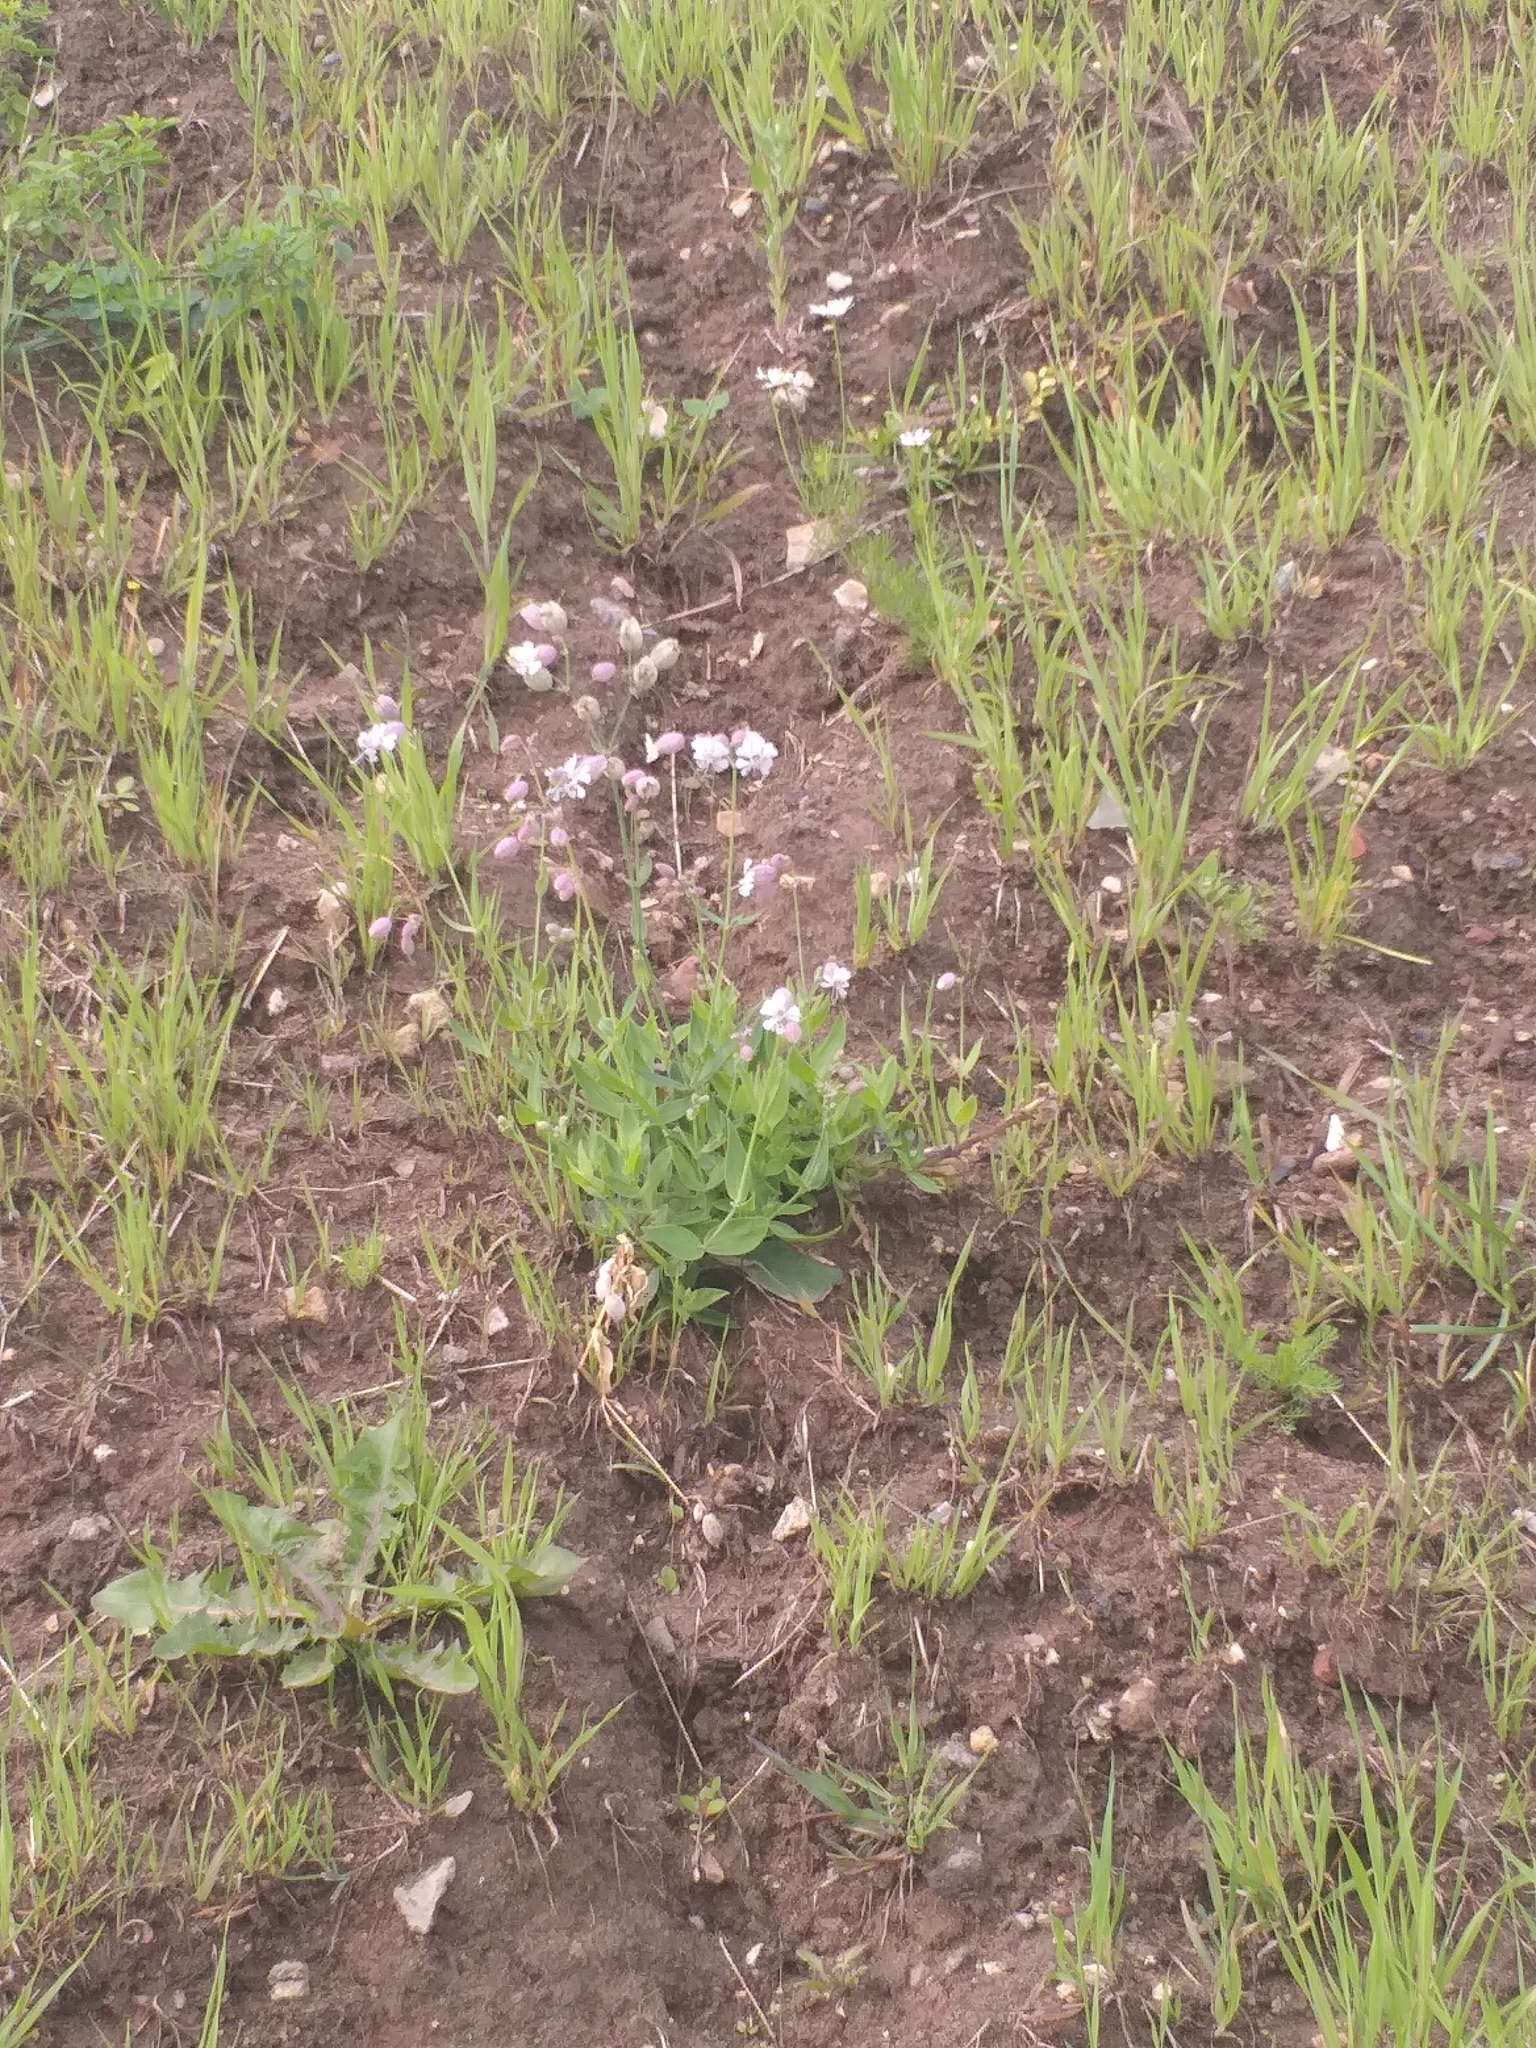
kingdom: Plantae
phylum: Tracheophyta
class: Magnoliopsida
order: Caryophyllales
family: Caryophyllaceae
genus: Silene
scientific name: Silene vulgaris
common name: Bladder campion
